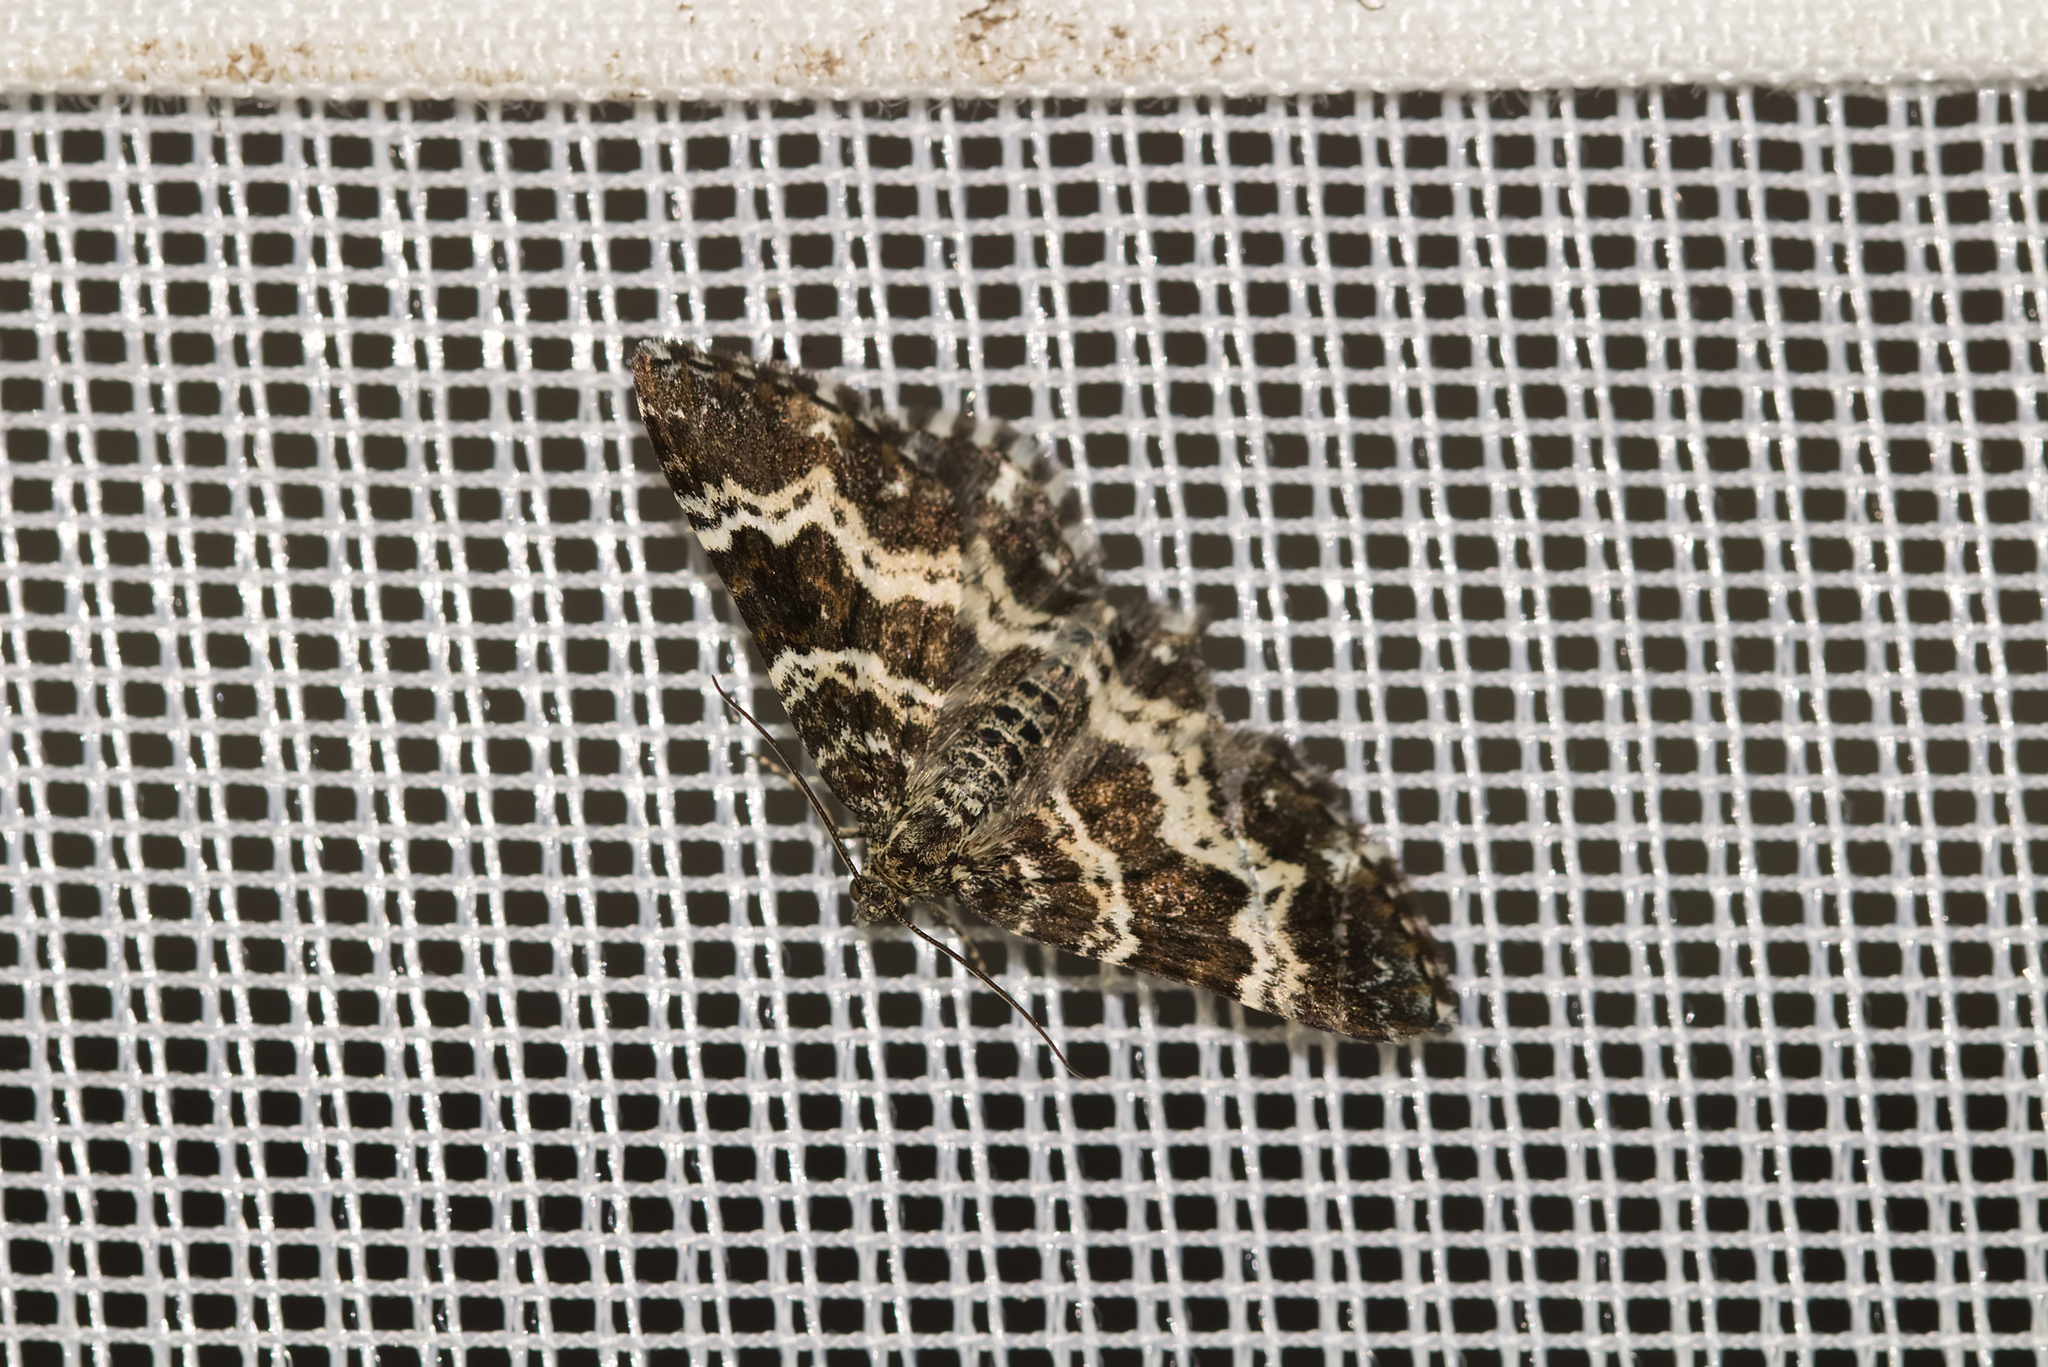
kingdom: Animalia
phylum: Arthropoda
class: Insecta
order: Lepidoptera
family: Geometridae
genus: Epirrhoe
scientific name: Epirrhoe tristata
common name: Small argent & sable
